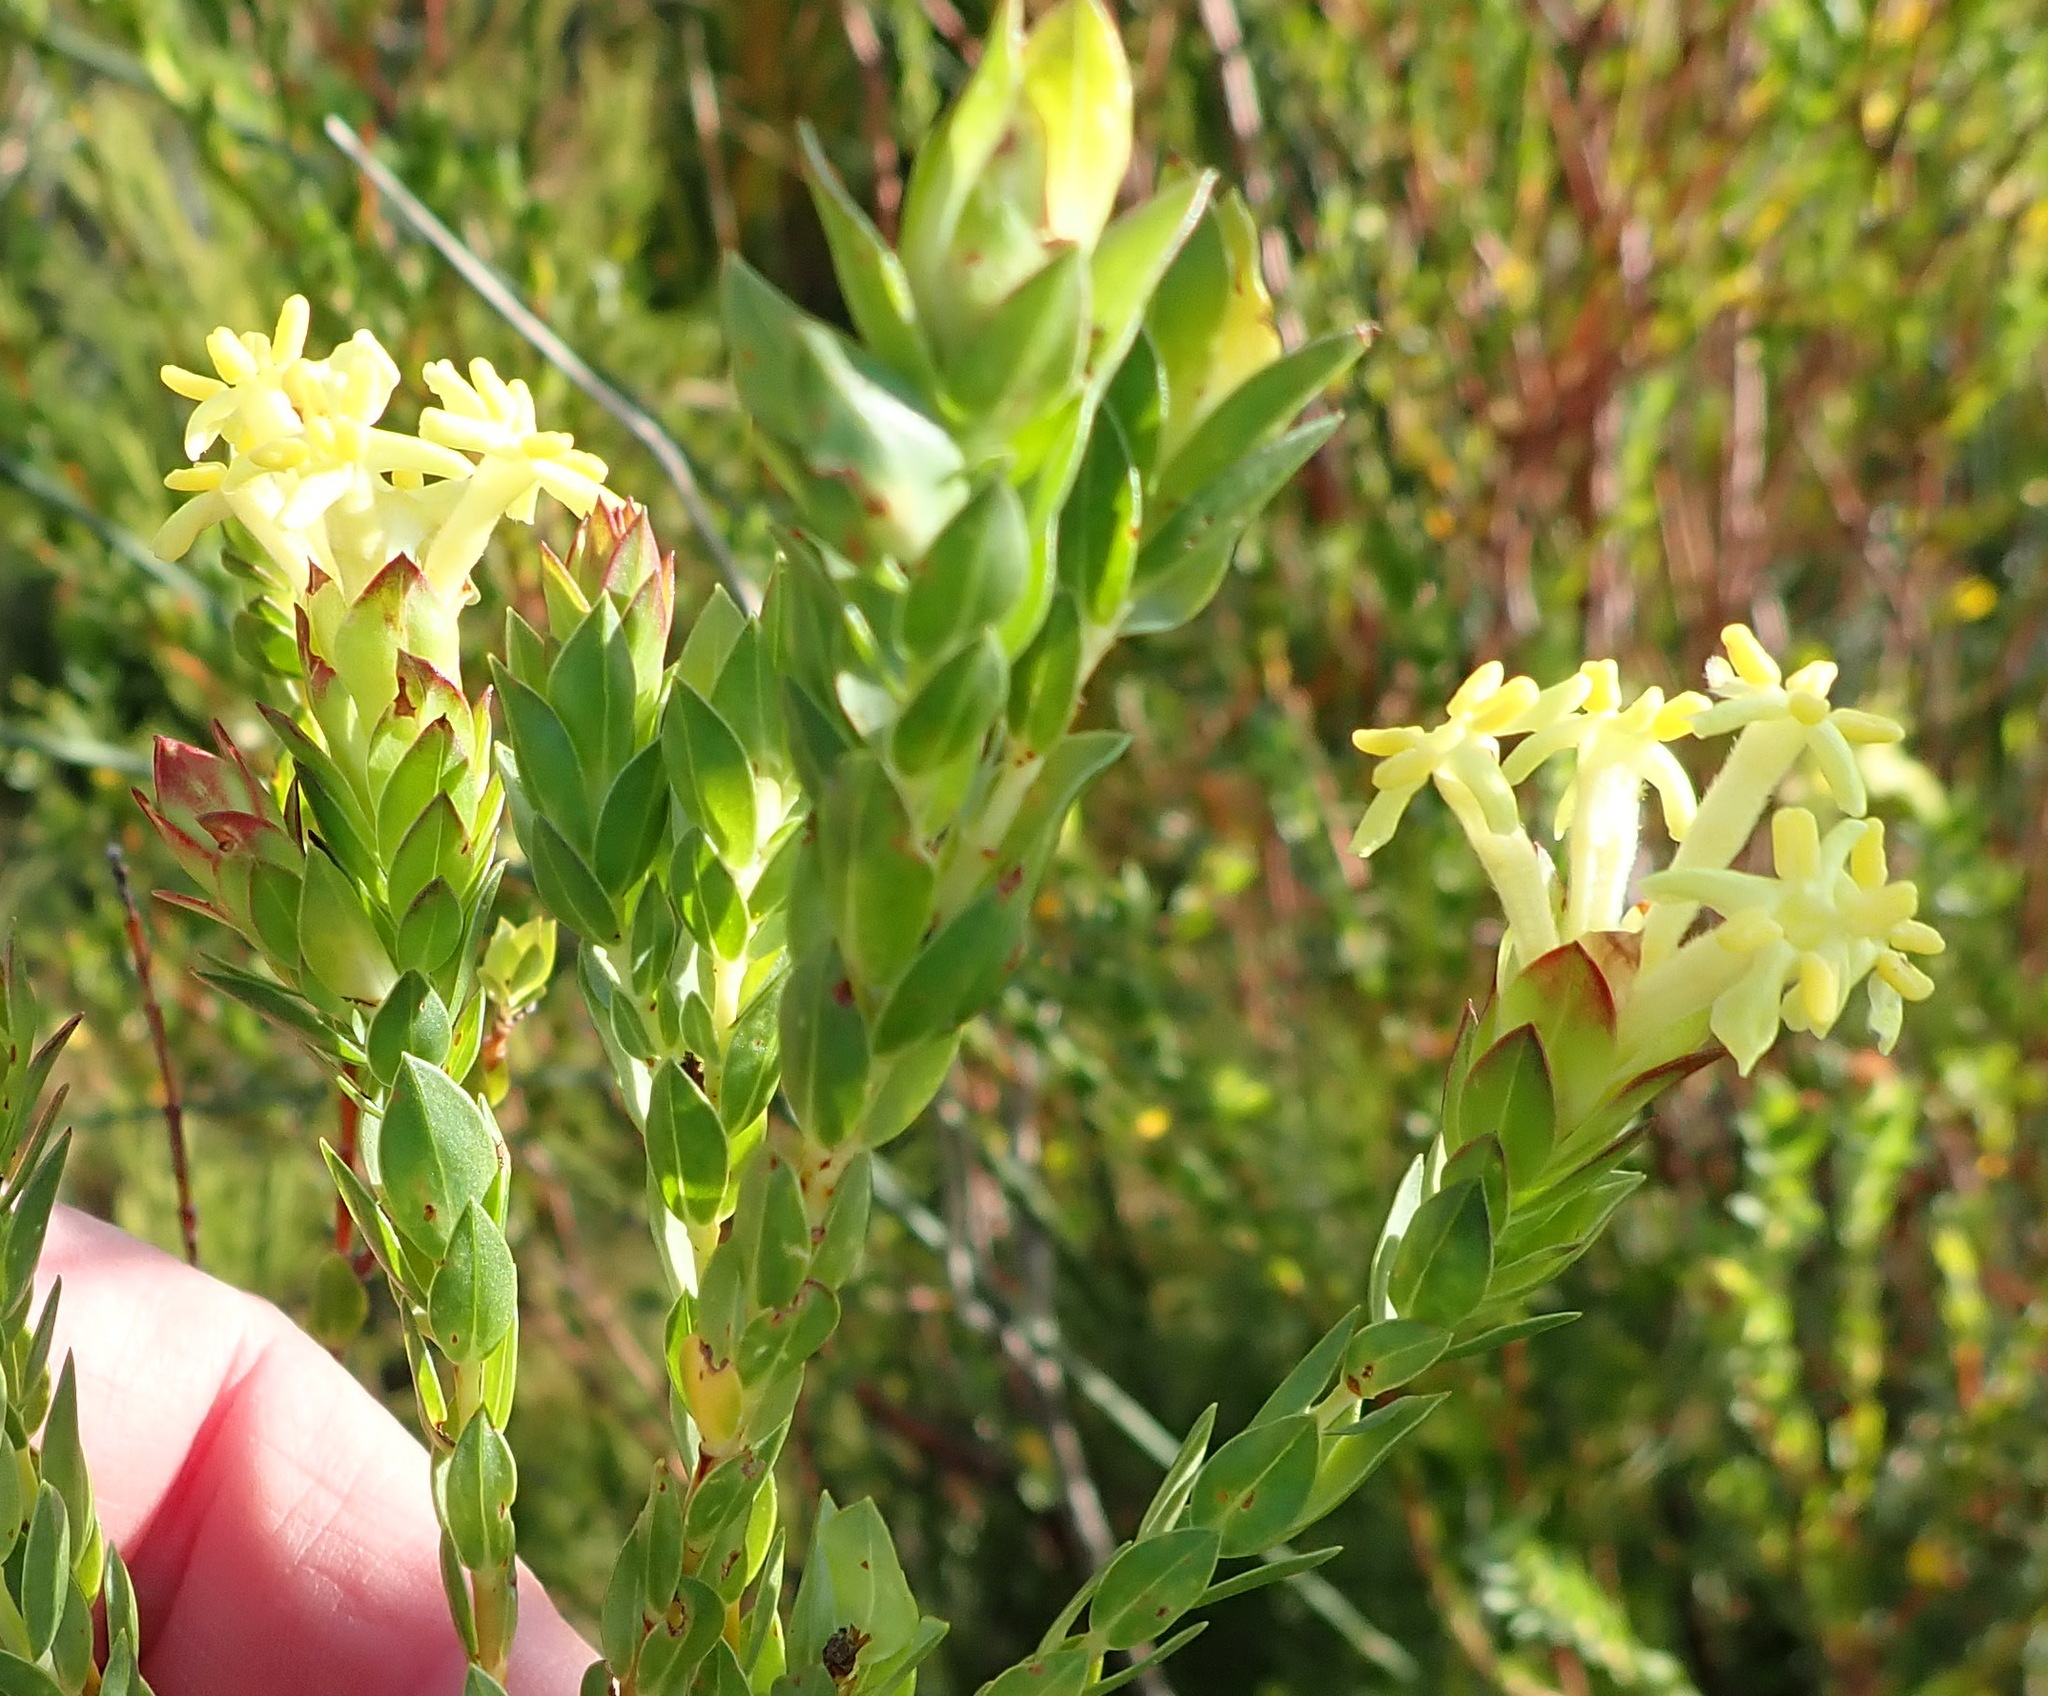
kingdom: Plantae
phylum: Tracheophyta
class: Magnoliopsida
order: Malvales
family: Thymelaeaceae
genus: Gnidia
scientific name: Gnidia oppositifolia
